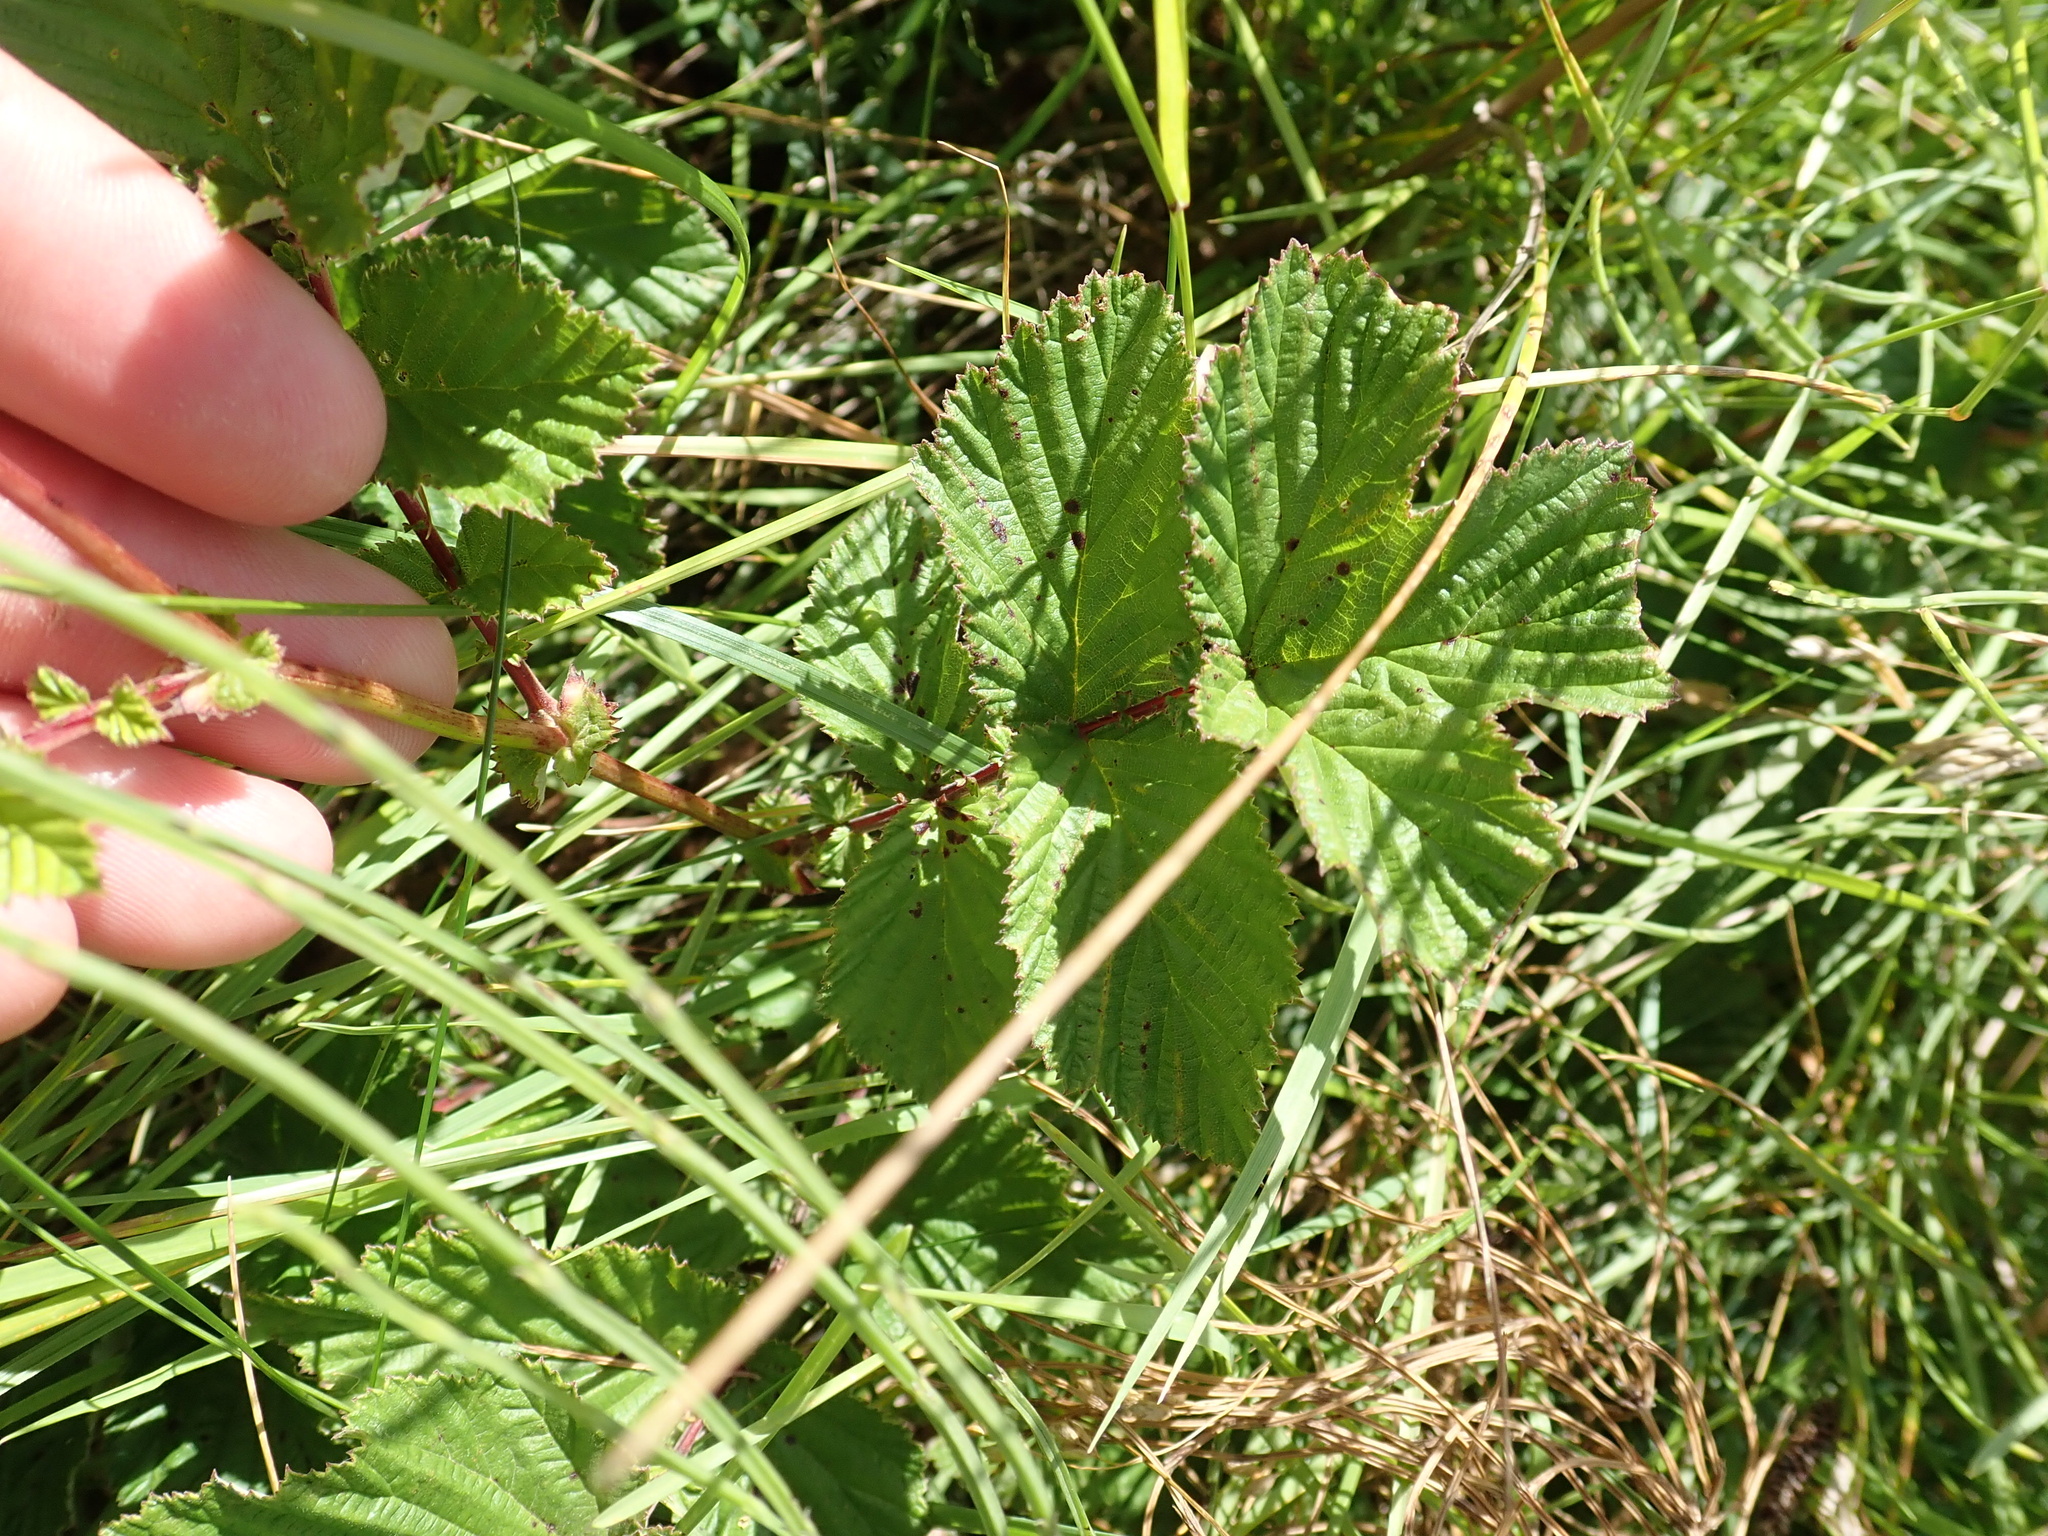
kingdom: Plantae
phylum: Tracheophyta
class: Magnoliopsida
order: Rosales
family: Rosaceae
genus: Filipendula
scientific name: Filipendula ulmaria
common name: Meadowsweet
